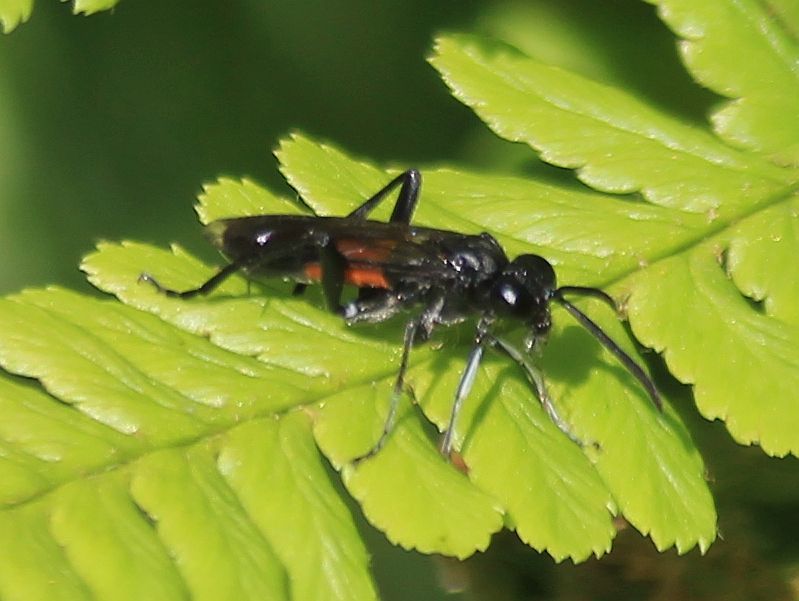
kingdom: Animalia
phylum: Arthropoda
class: Insecta
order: Hymenoptera
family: Tenthredinidae
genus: Macrophya
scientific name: Macrophya annulata
